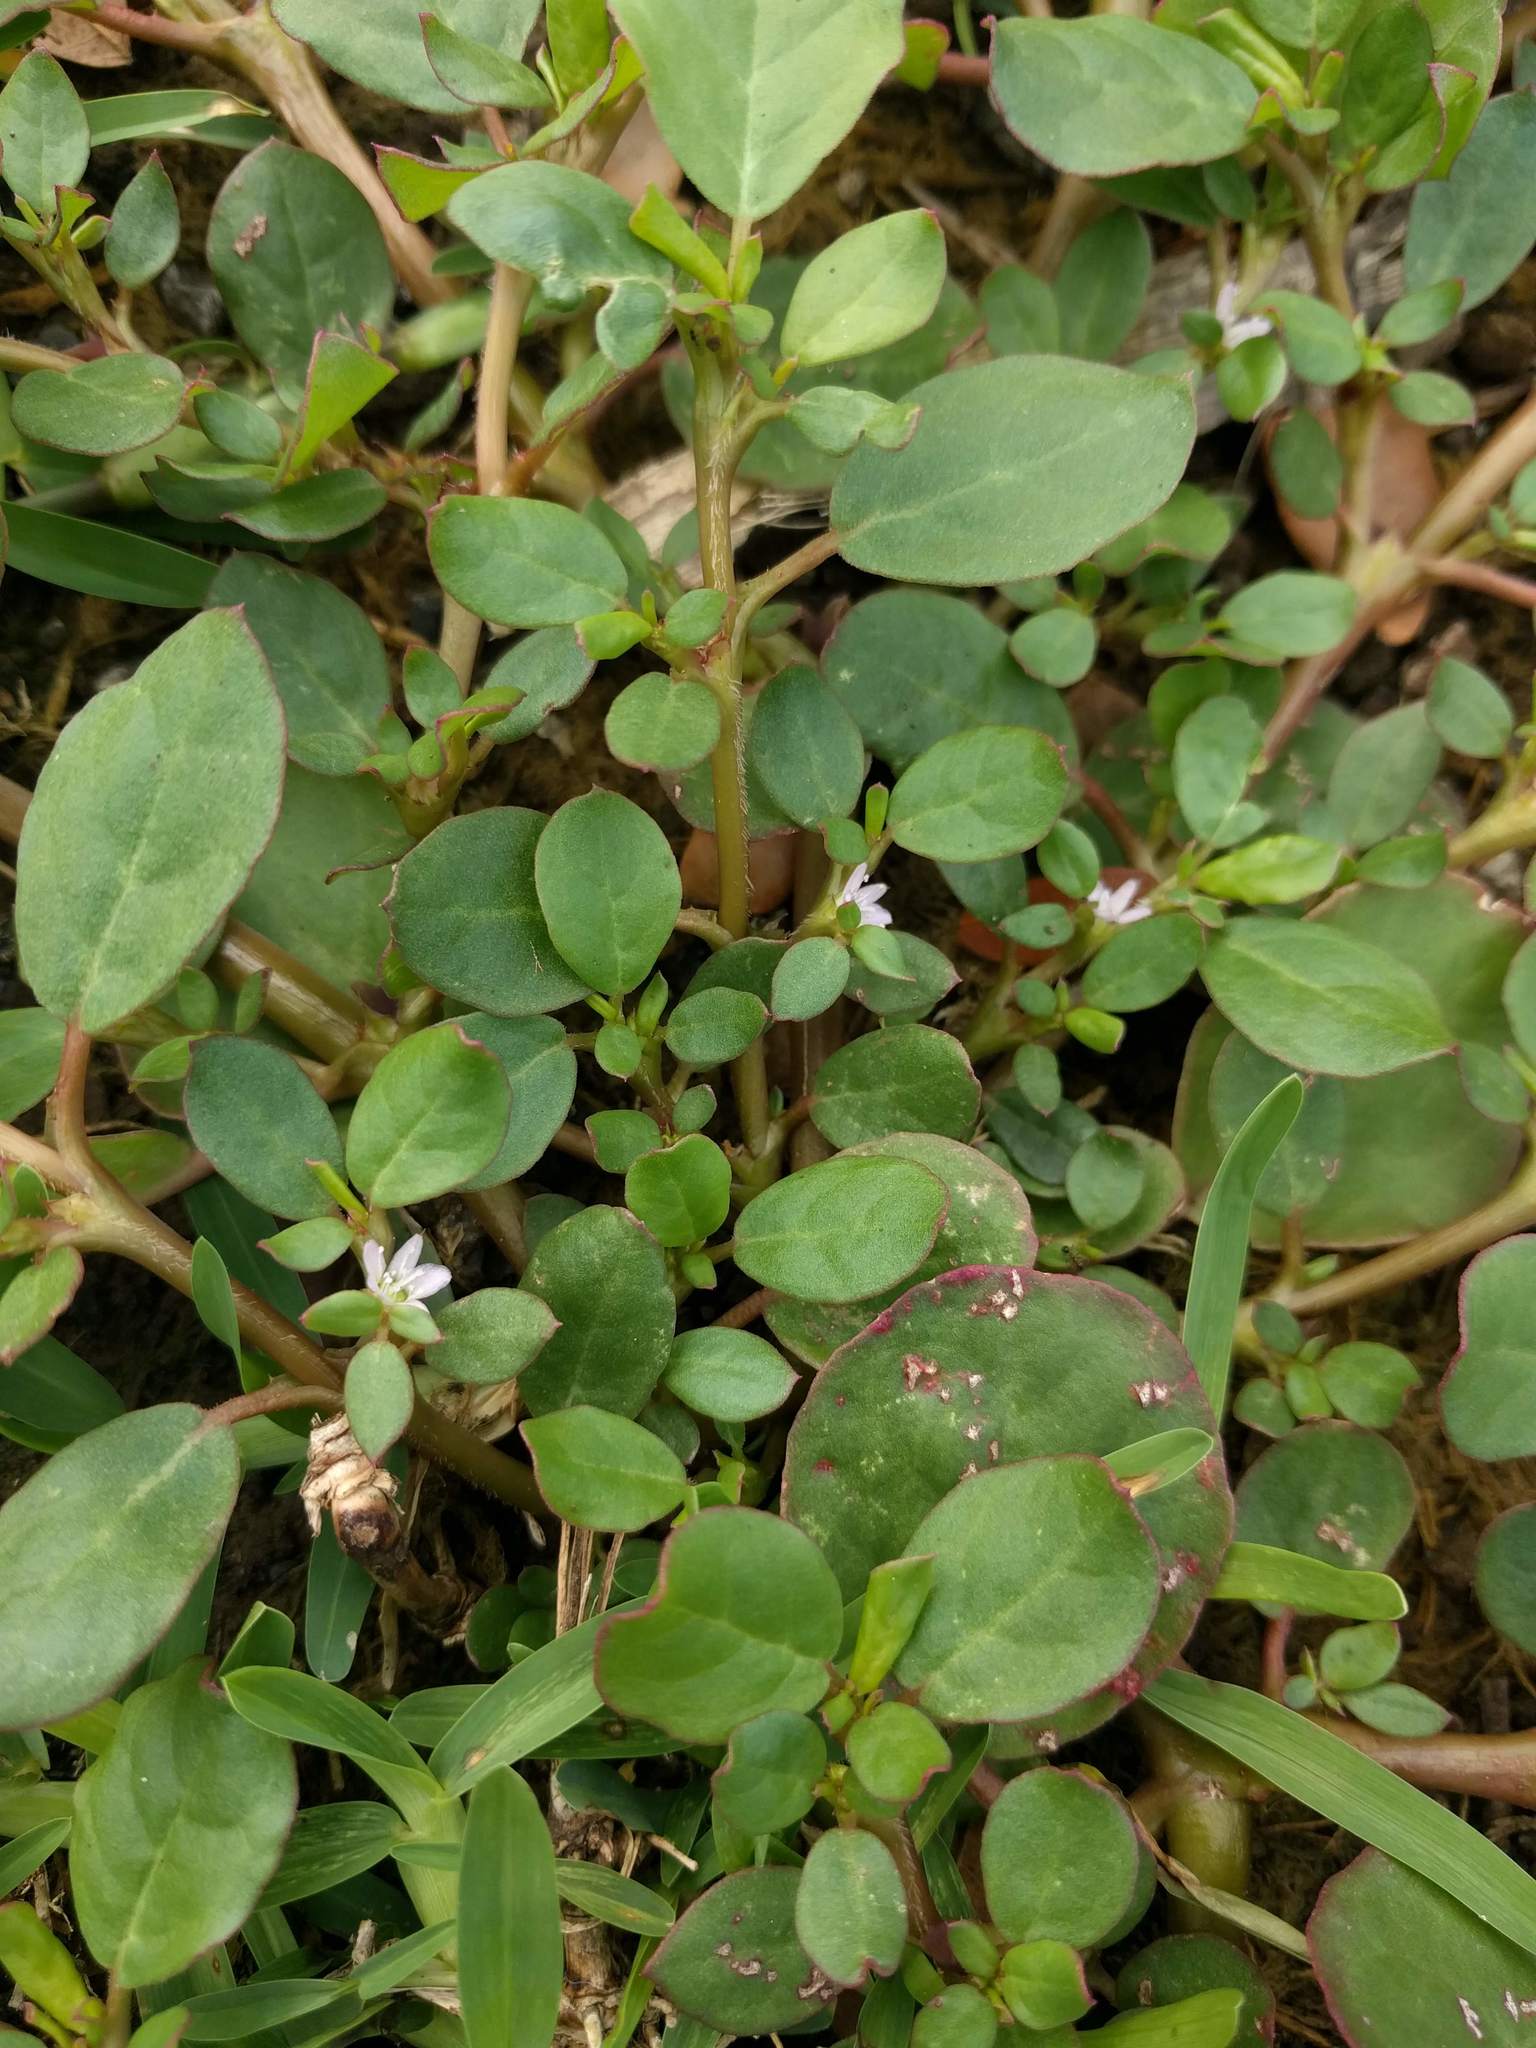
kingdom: Plantae
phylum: Tracheophyta
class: Magnoliopsida
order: Caryophyllales
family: Aizoaceae
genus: Trianthema
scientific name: Trianthema portulacastrum
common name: Desert horsepurslane
